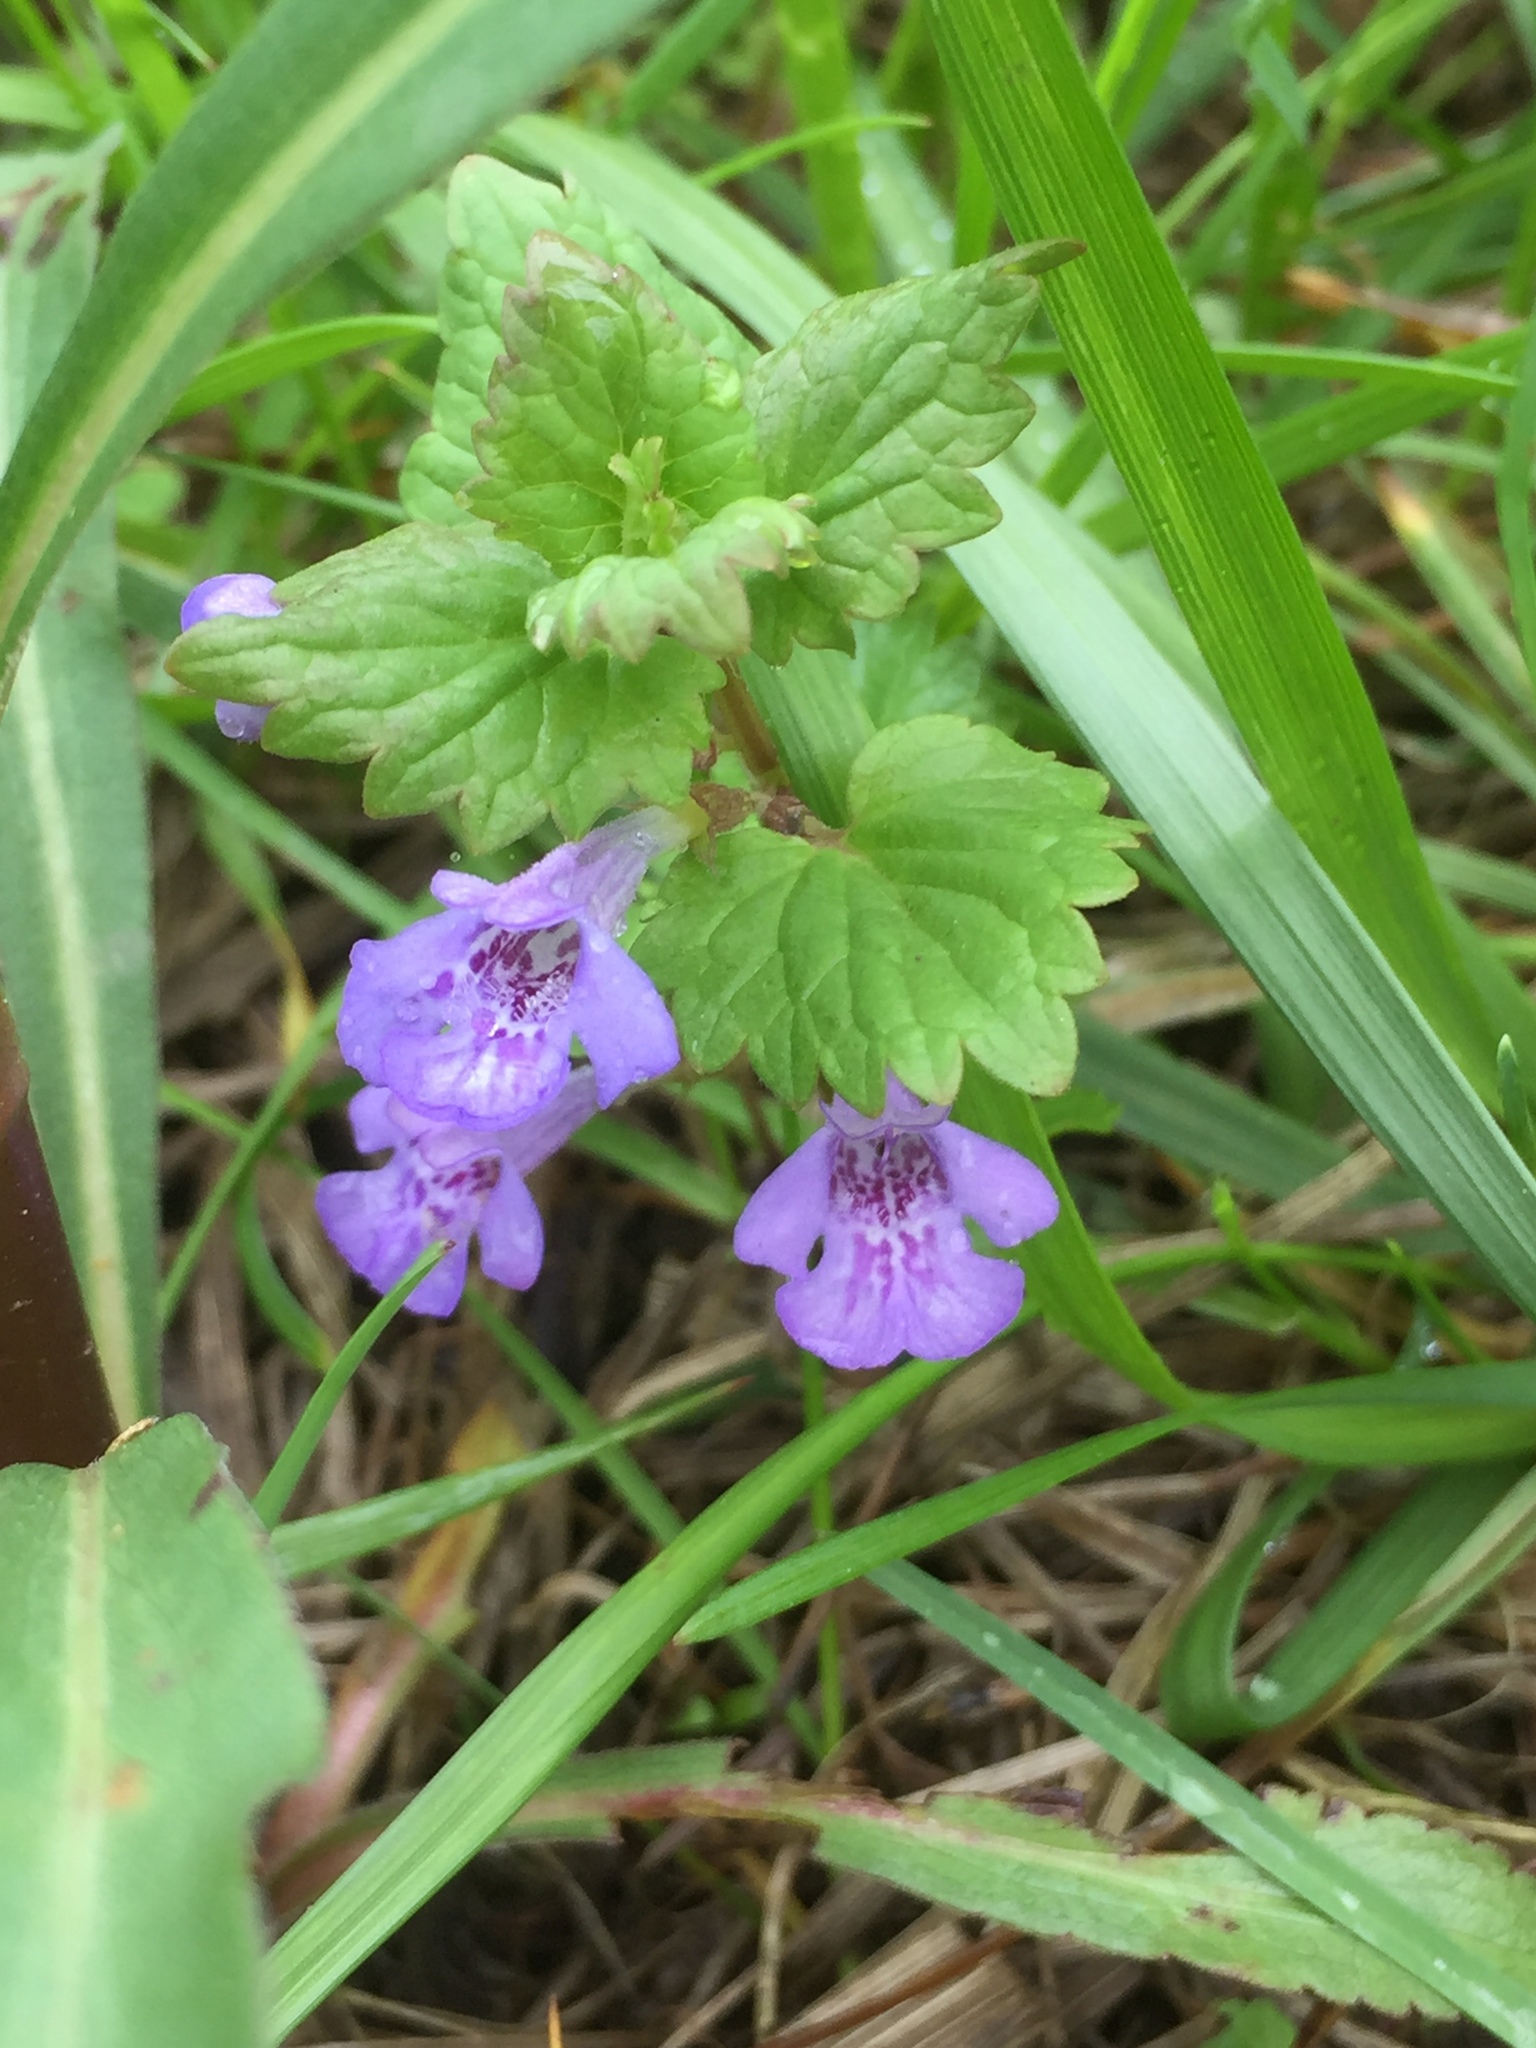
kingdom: Plantae
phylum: Tracheophyta
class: Magnoliopsida
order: Lamiales
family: Lamiaceae
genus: Glechoma
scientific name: Glechoma hederacea
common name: Ground ivy
